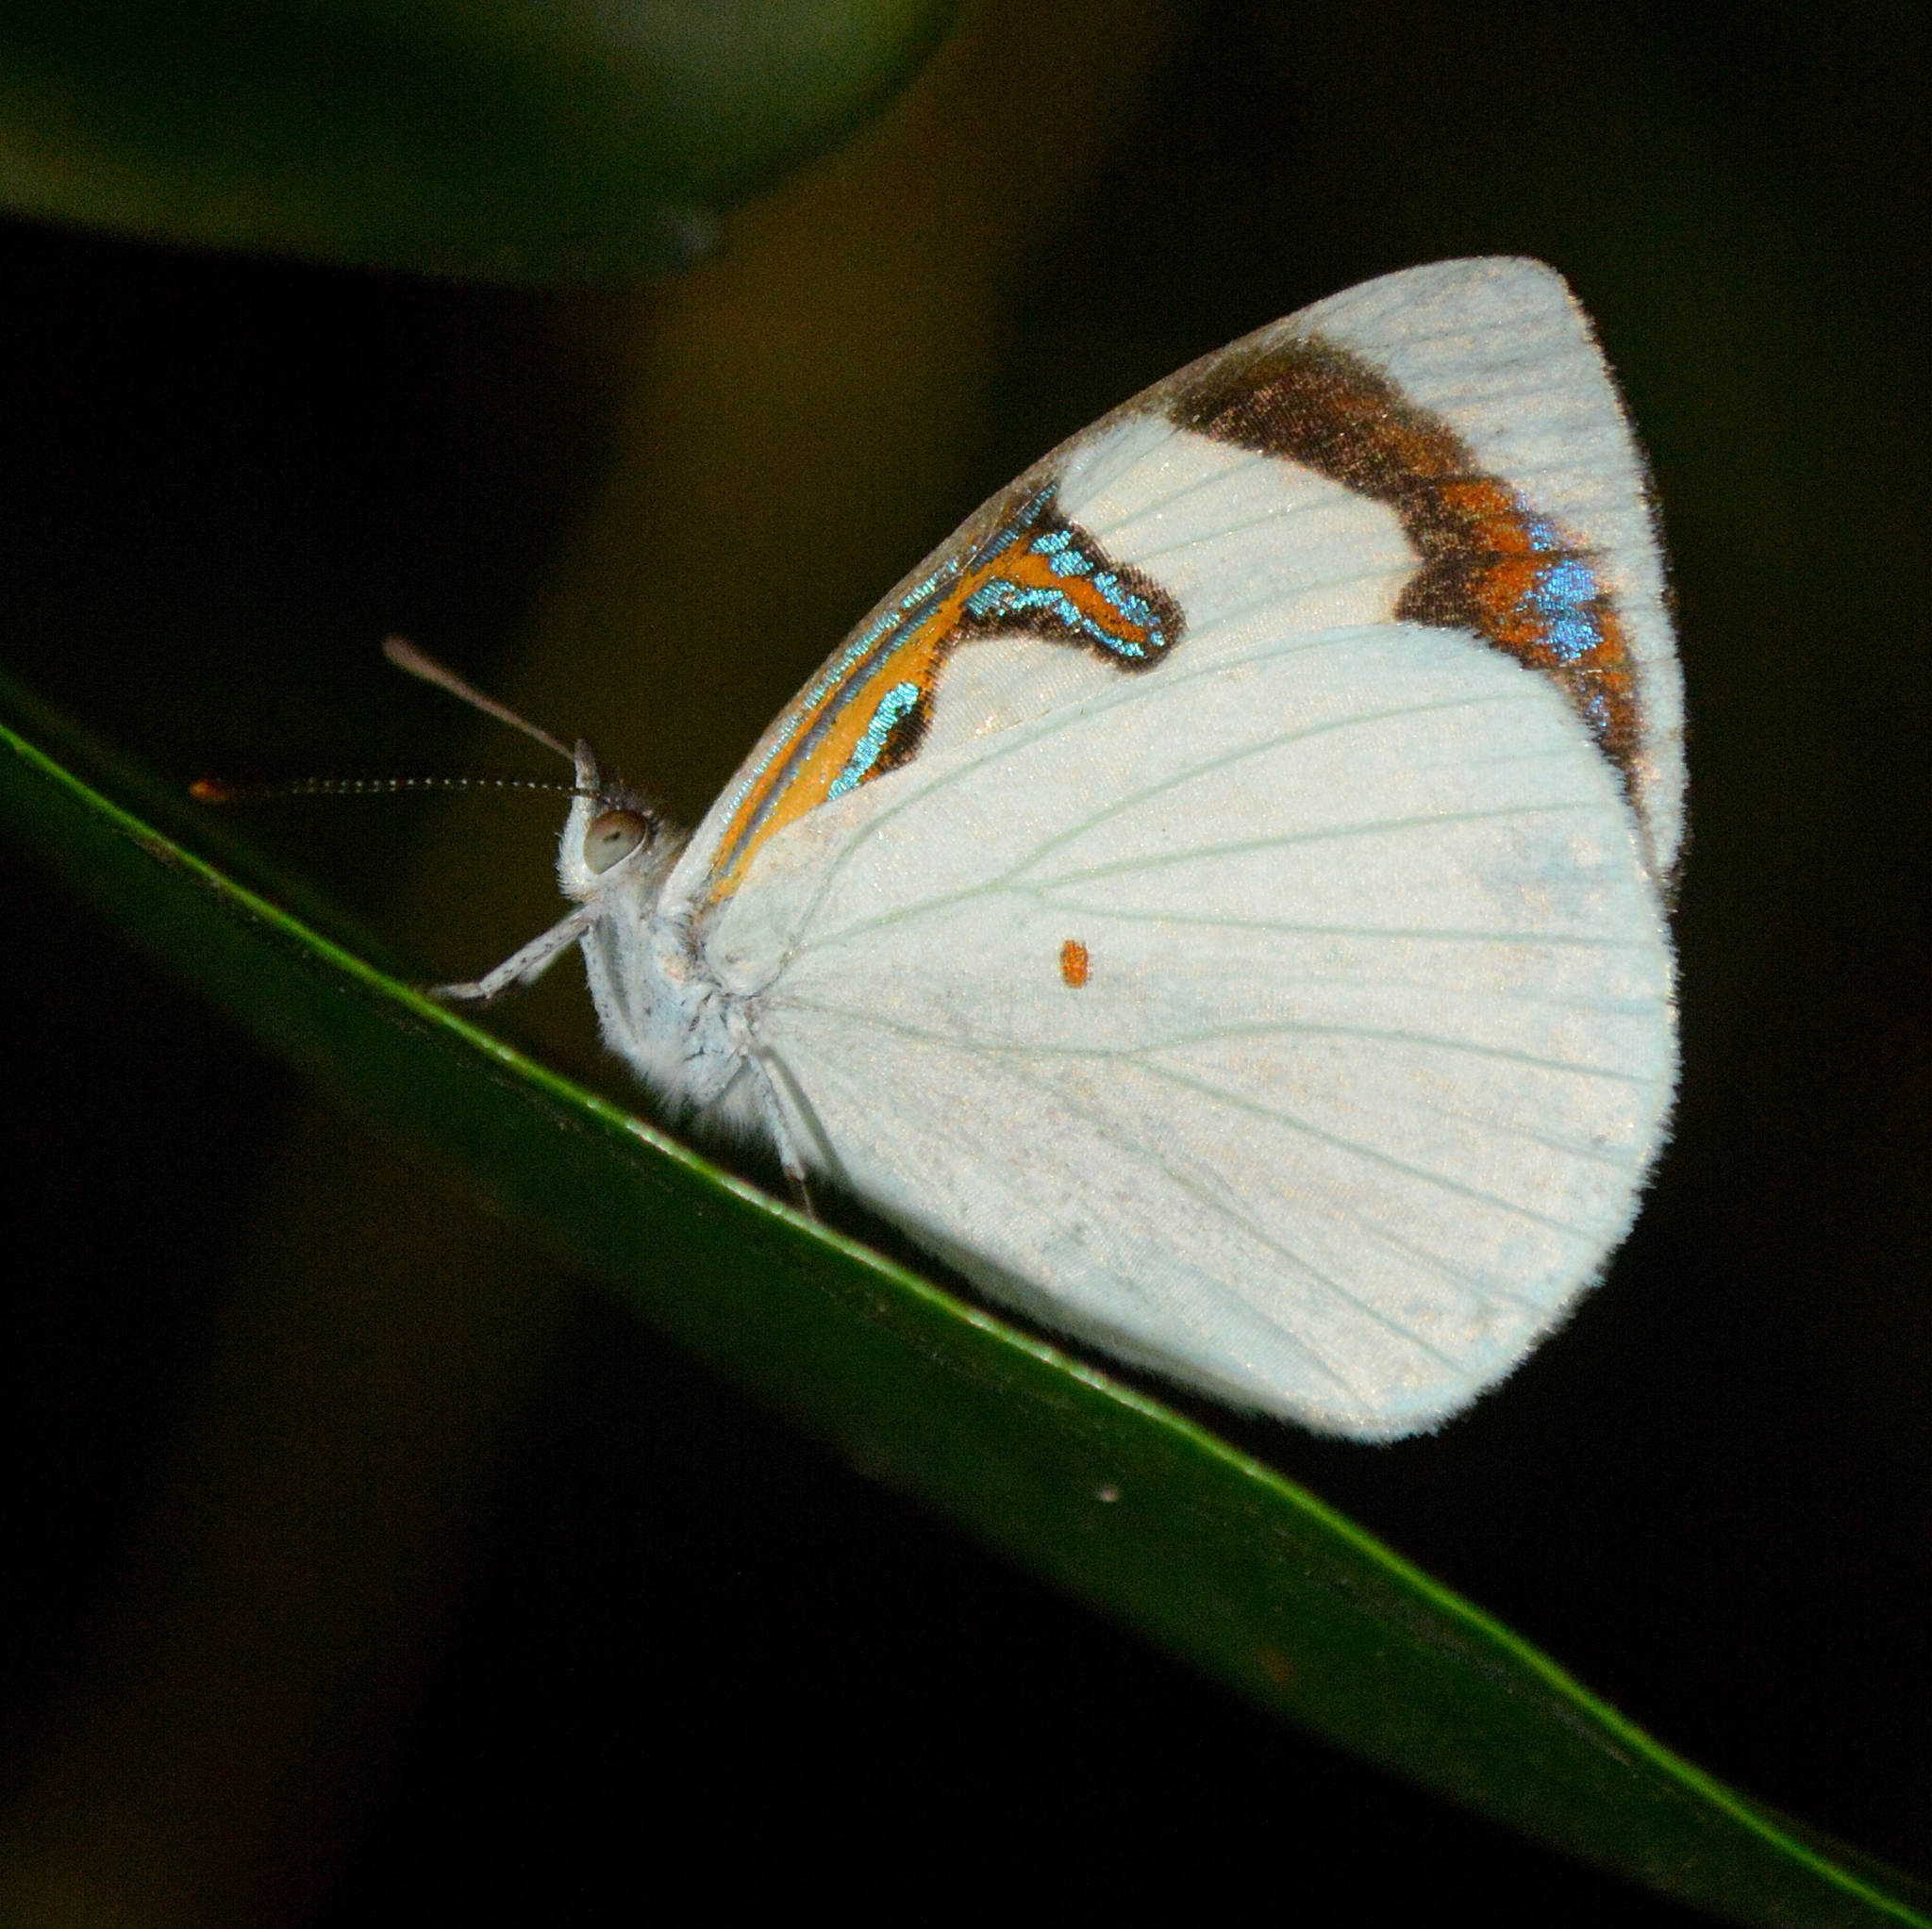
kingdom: Animalia
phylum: Arthropoda
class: Insecta
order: Lepidoptera
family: Nymphalidae
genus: Dynamine
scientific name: Dynamine myrrhina
